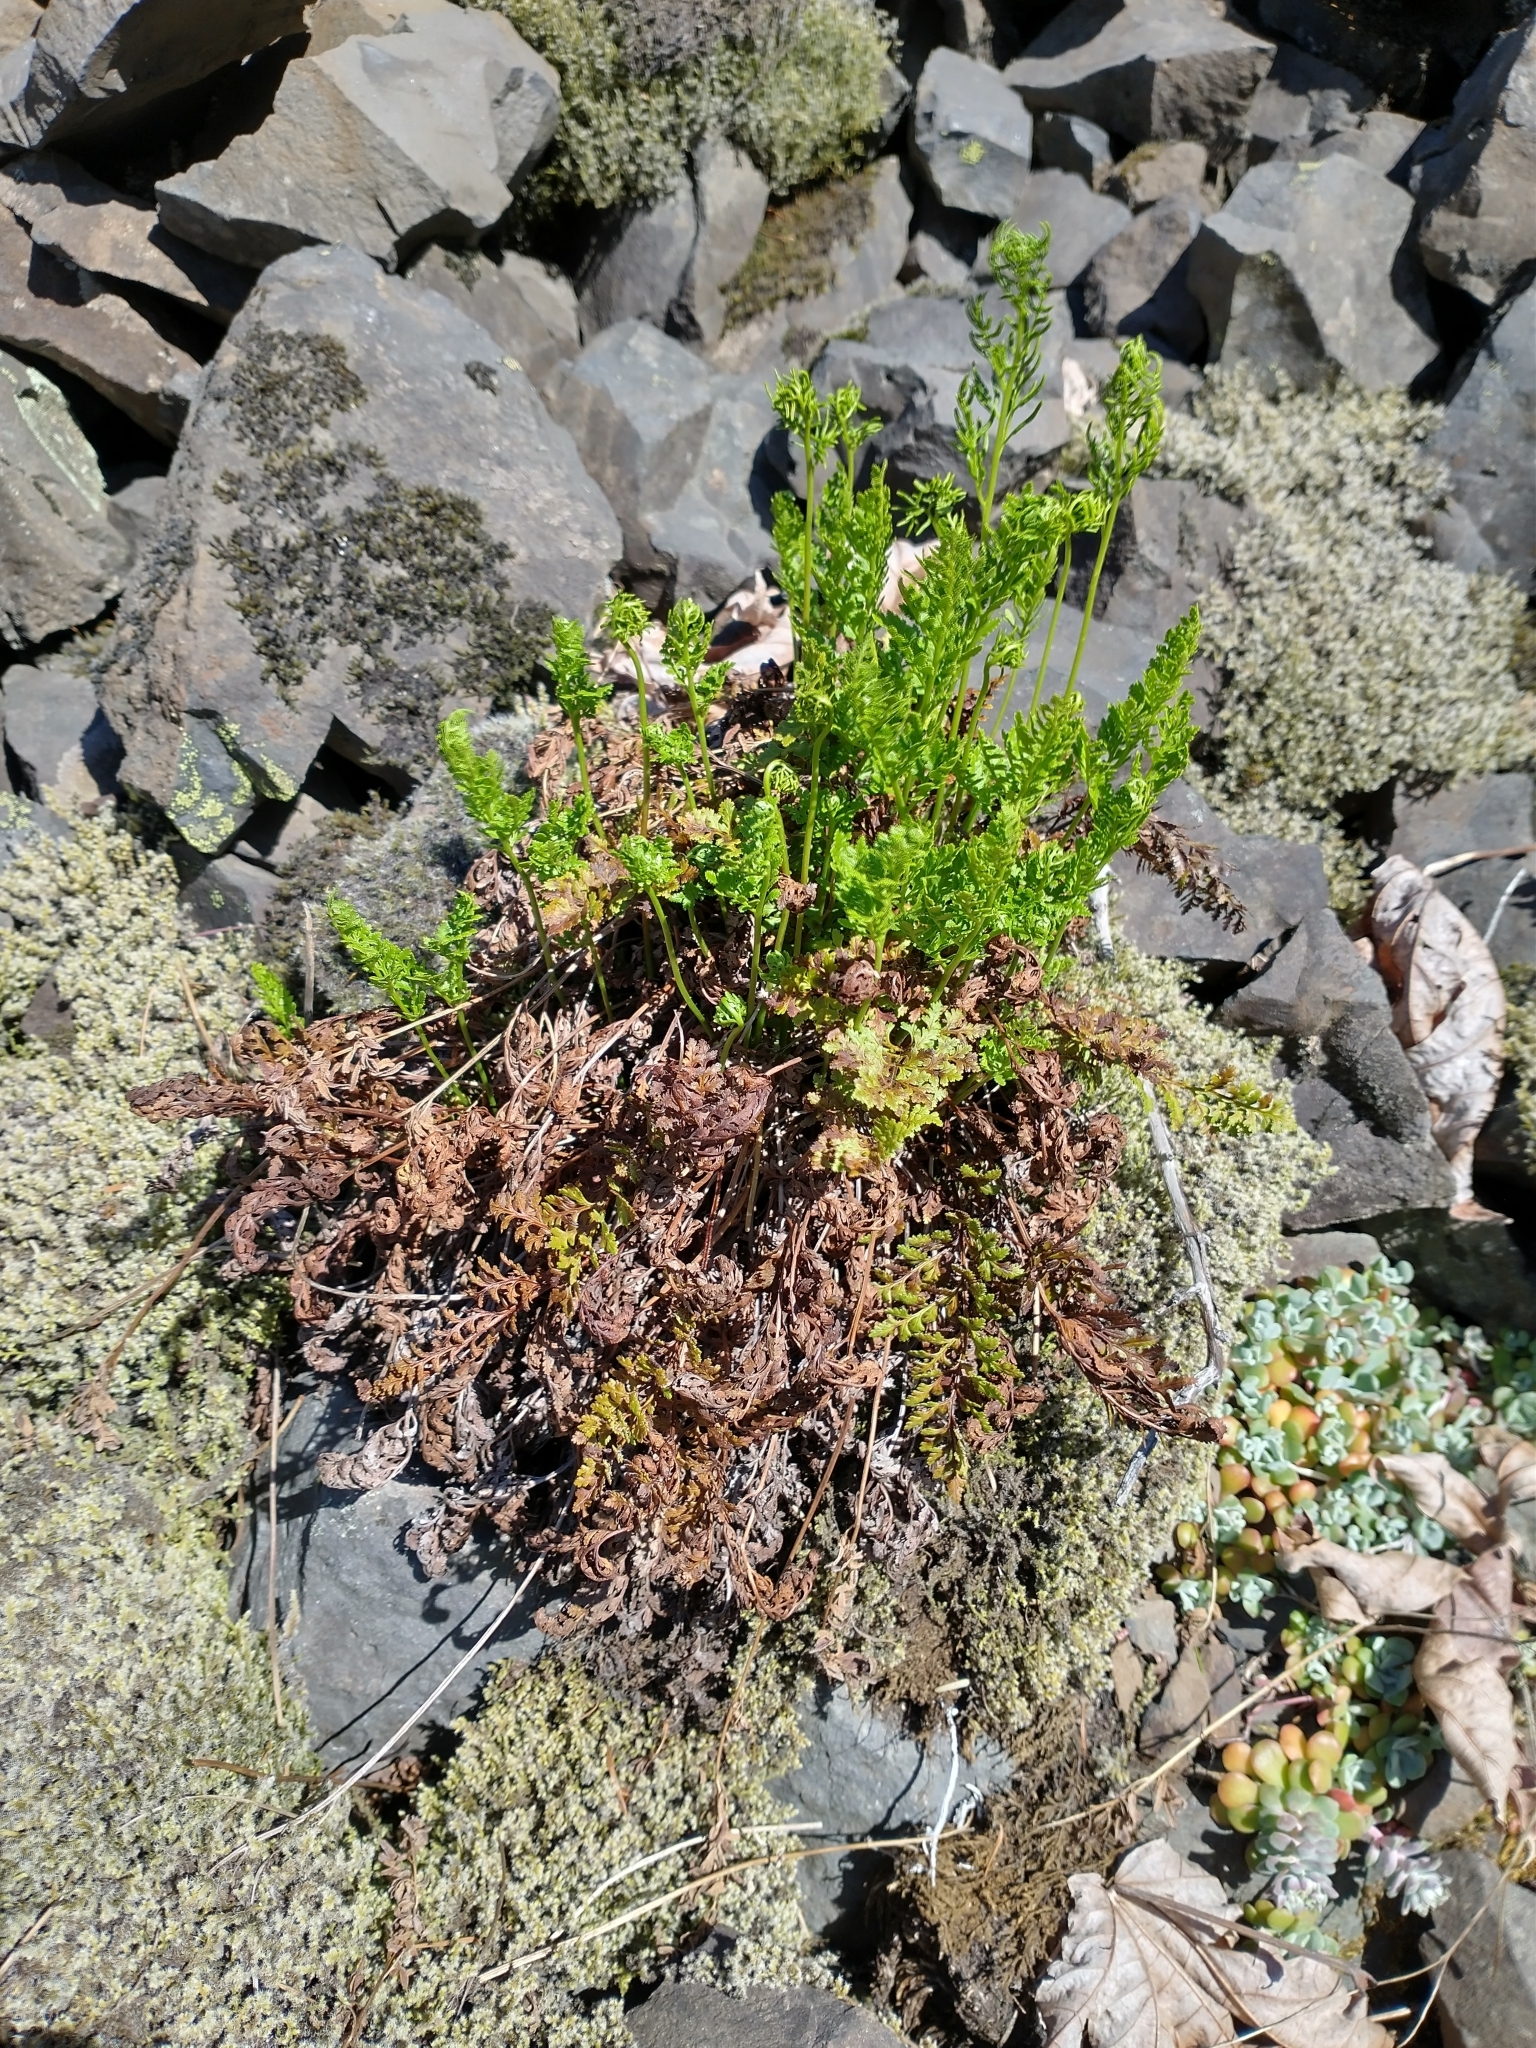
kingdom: Plantae
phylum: Tracheophyta
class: Polypodiopsida
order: Polypodiales
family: Pteridaceae
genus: Cryptogramma
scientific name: Cryptogramma acrostichoides
